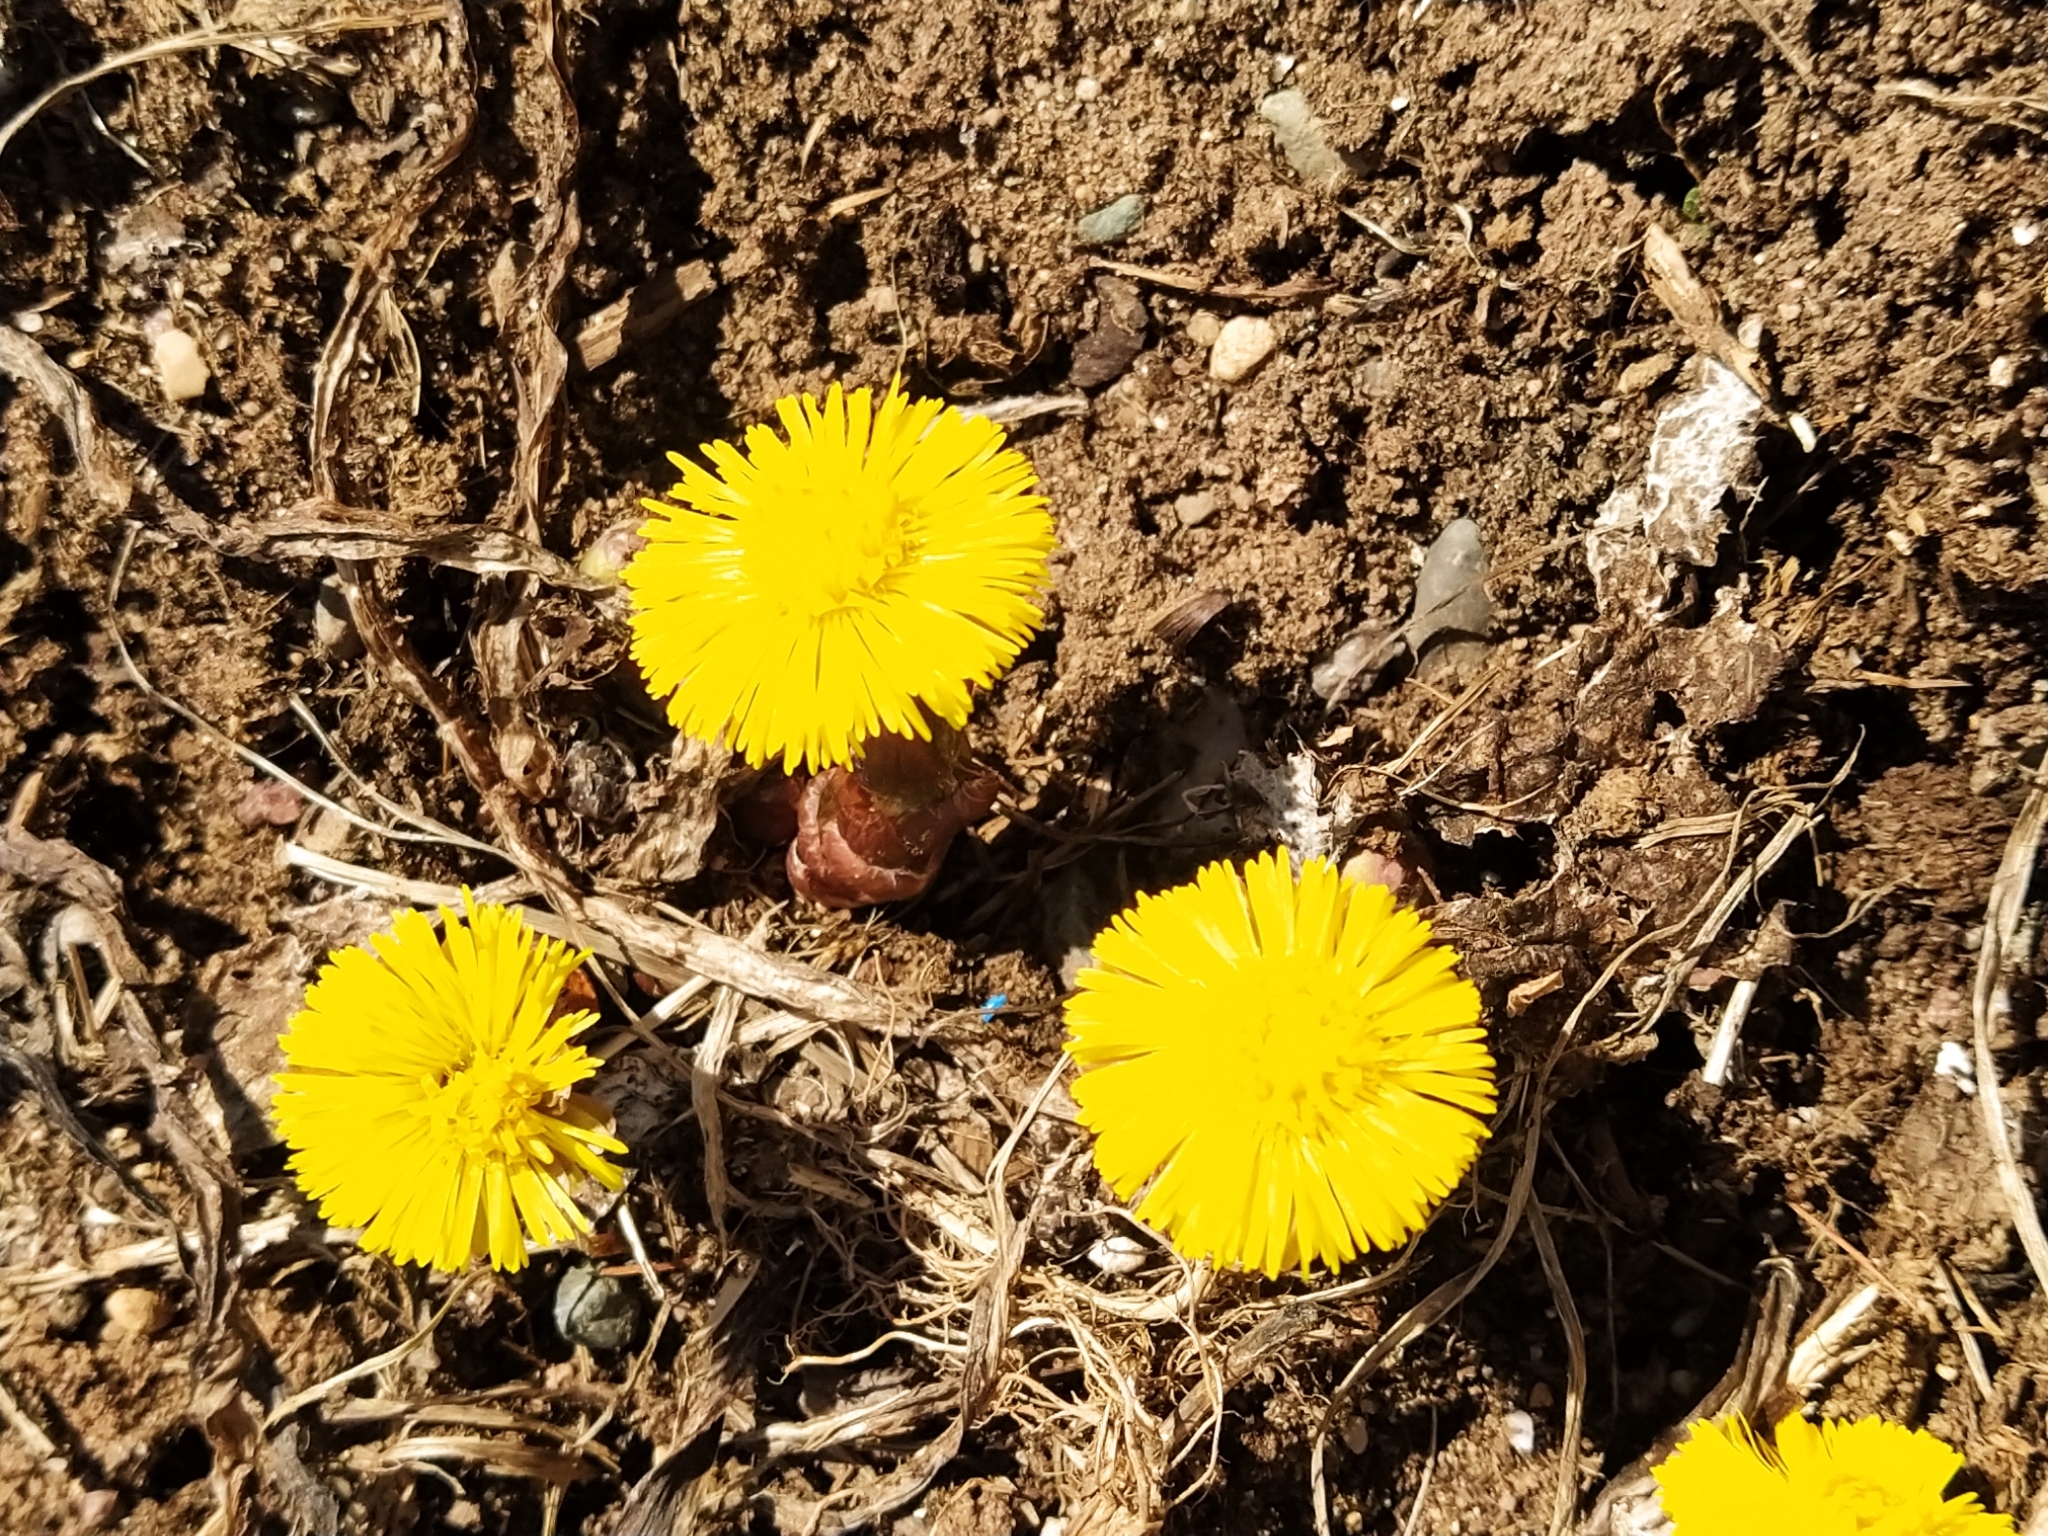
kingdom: Plantae
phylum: Tracheophyta
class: Magnoliopsida
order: Asterales
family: Asteraceae
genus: Tussilago
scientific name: Tussilago farfara
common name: Coltsfoot
